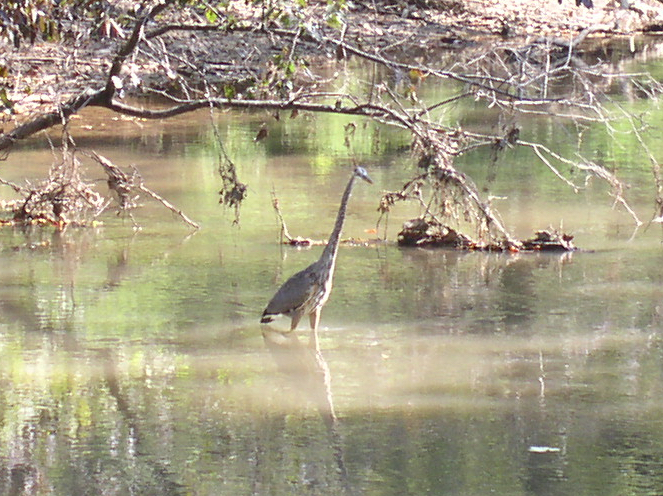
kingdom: Animalia
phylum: Chordata
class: Aves
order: Pelecaniformes
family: Ardeidae
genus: Ardea
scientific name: Ardea herodias
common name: Great blue heron
